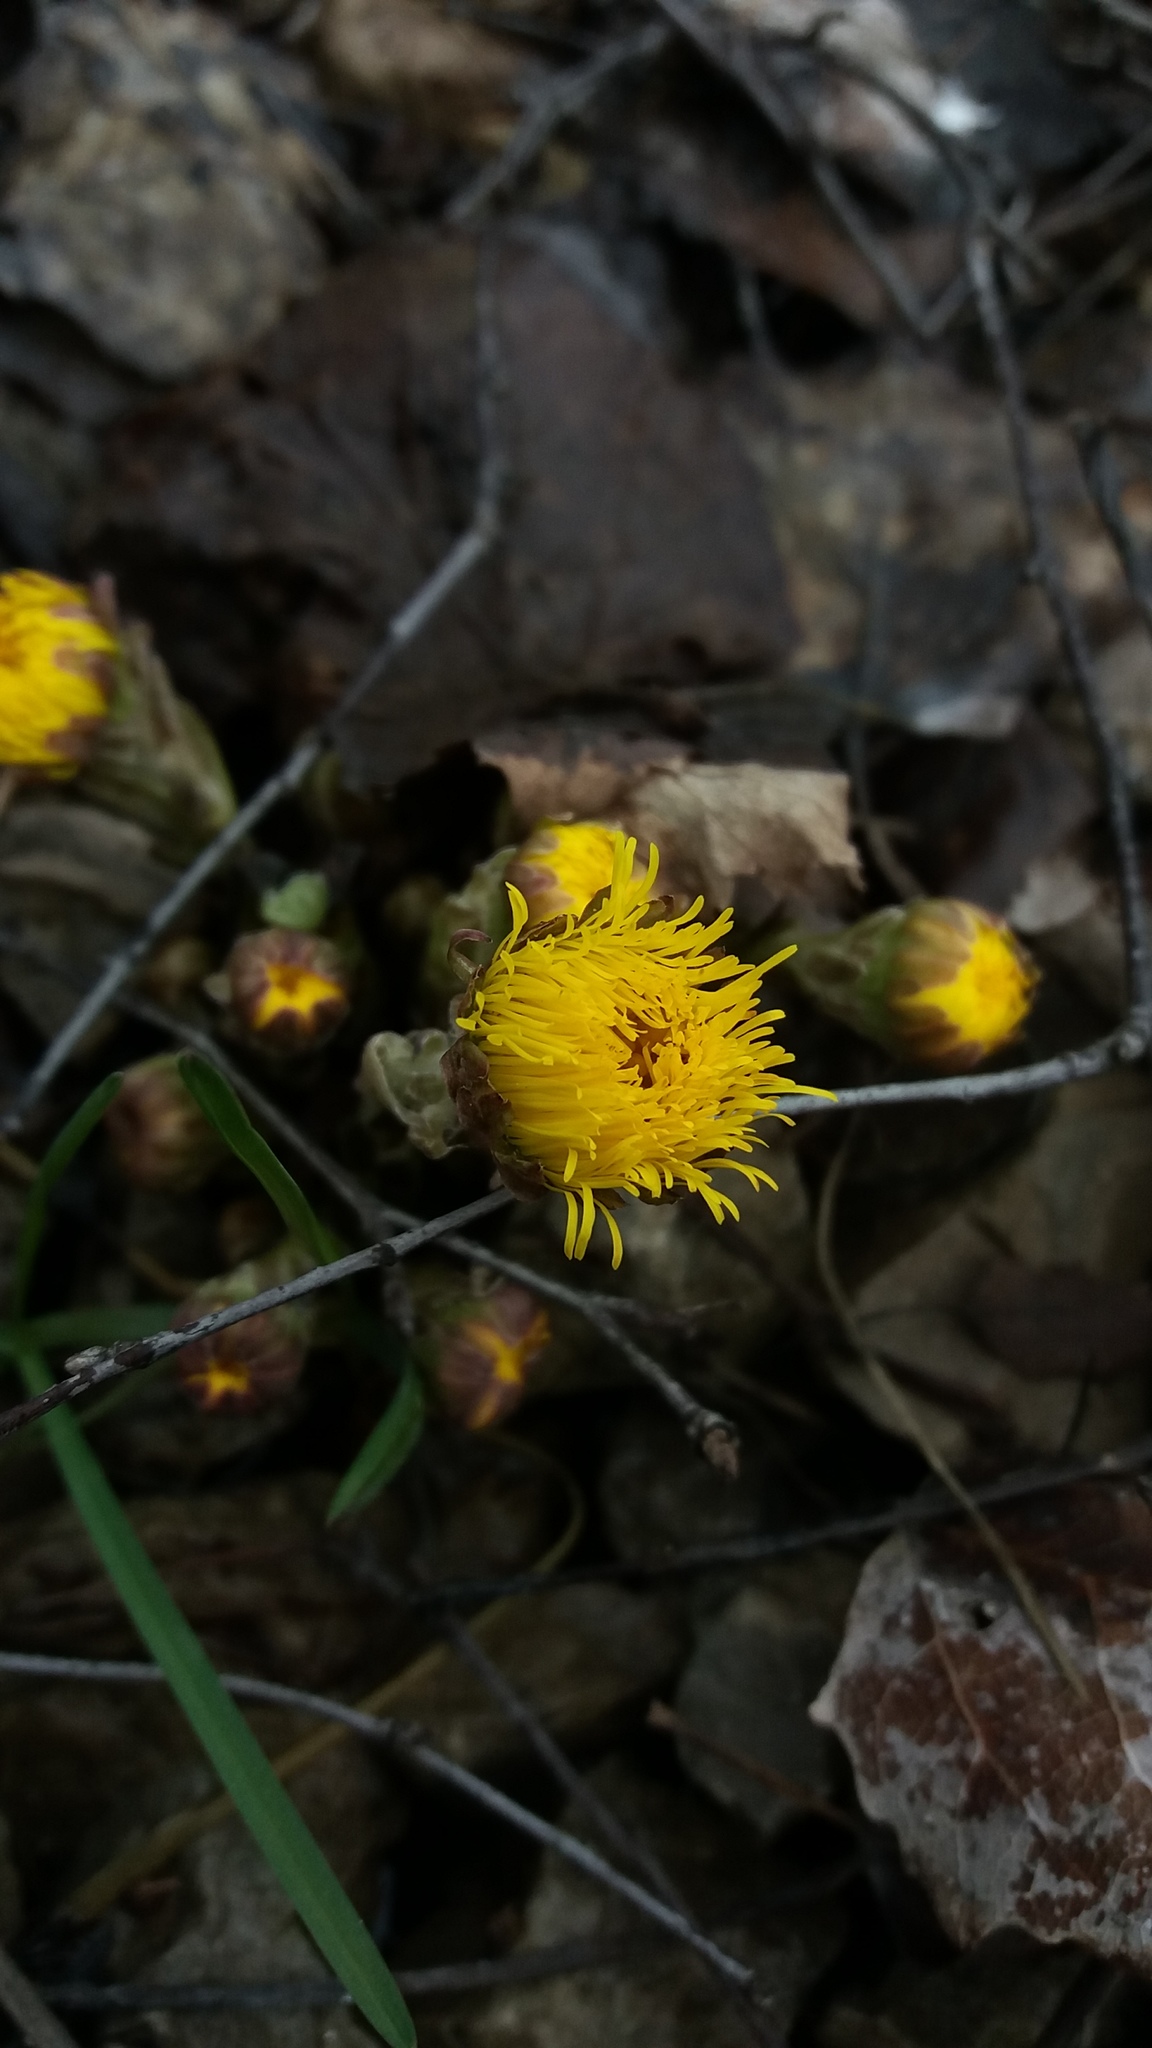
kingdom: Plantae
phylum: Tracheophyta
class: Magnoliopsida
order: Asterales
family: Asteraceae
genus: Tussilago
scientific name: Tussilago farfara
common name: Coltsfoot
